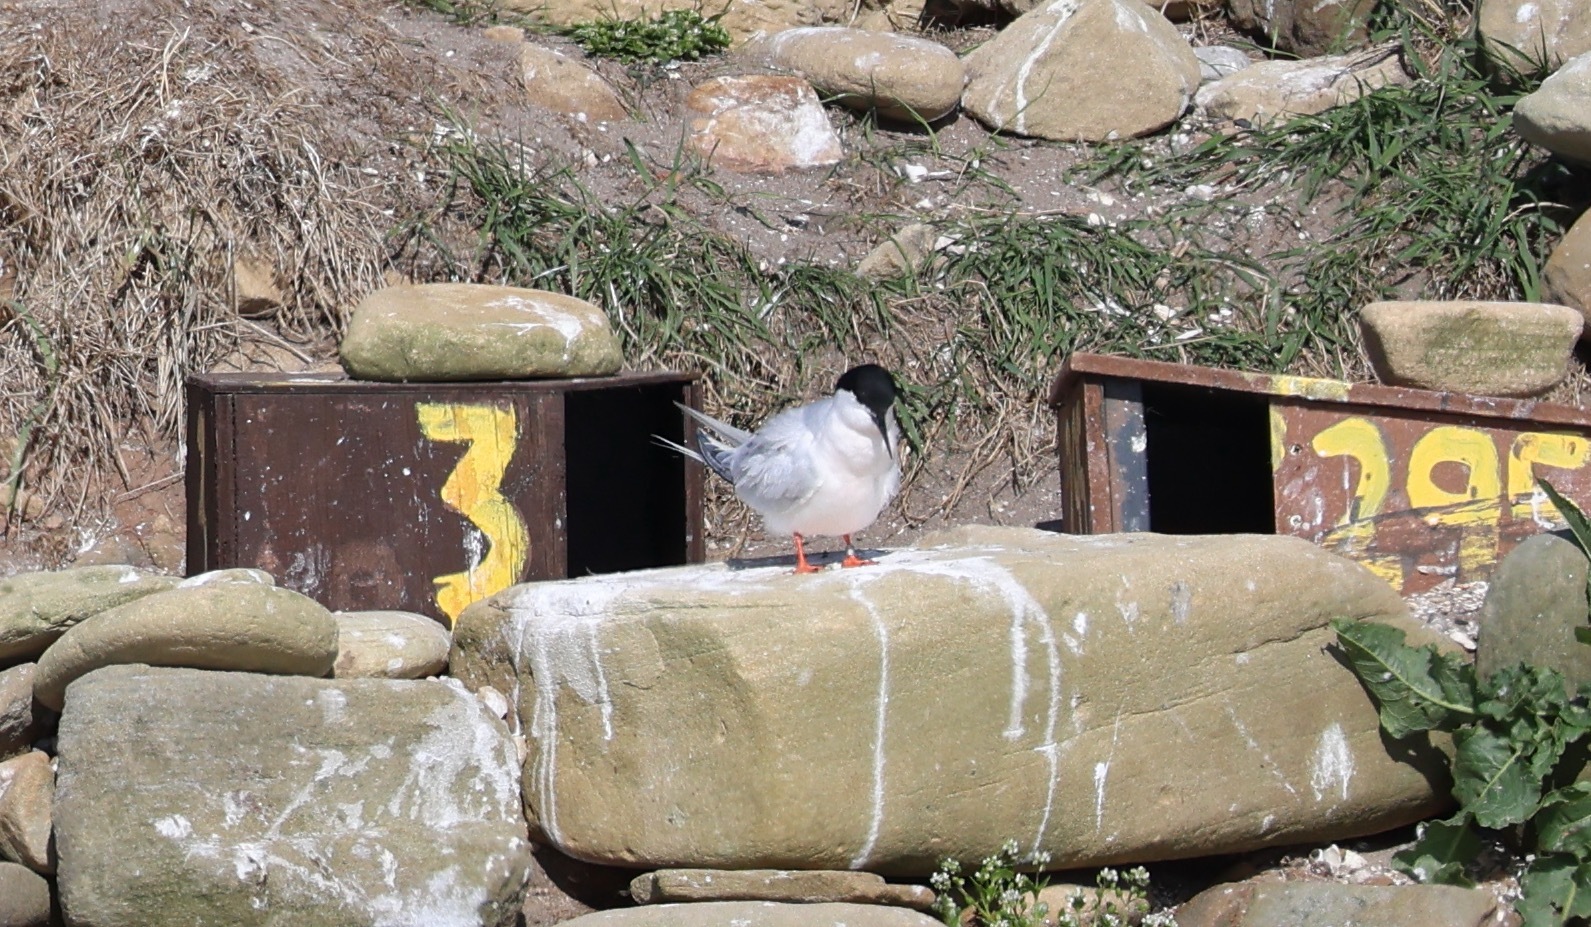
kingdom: Animalia
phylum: Chordata
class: Aves
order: Charadriiformes
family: Laridae
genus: Sterna
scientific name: Sterna dougallii
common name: Roseate tern
